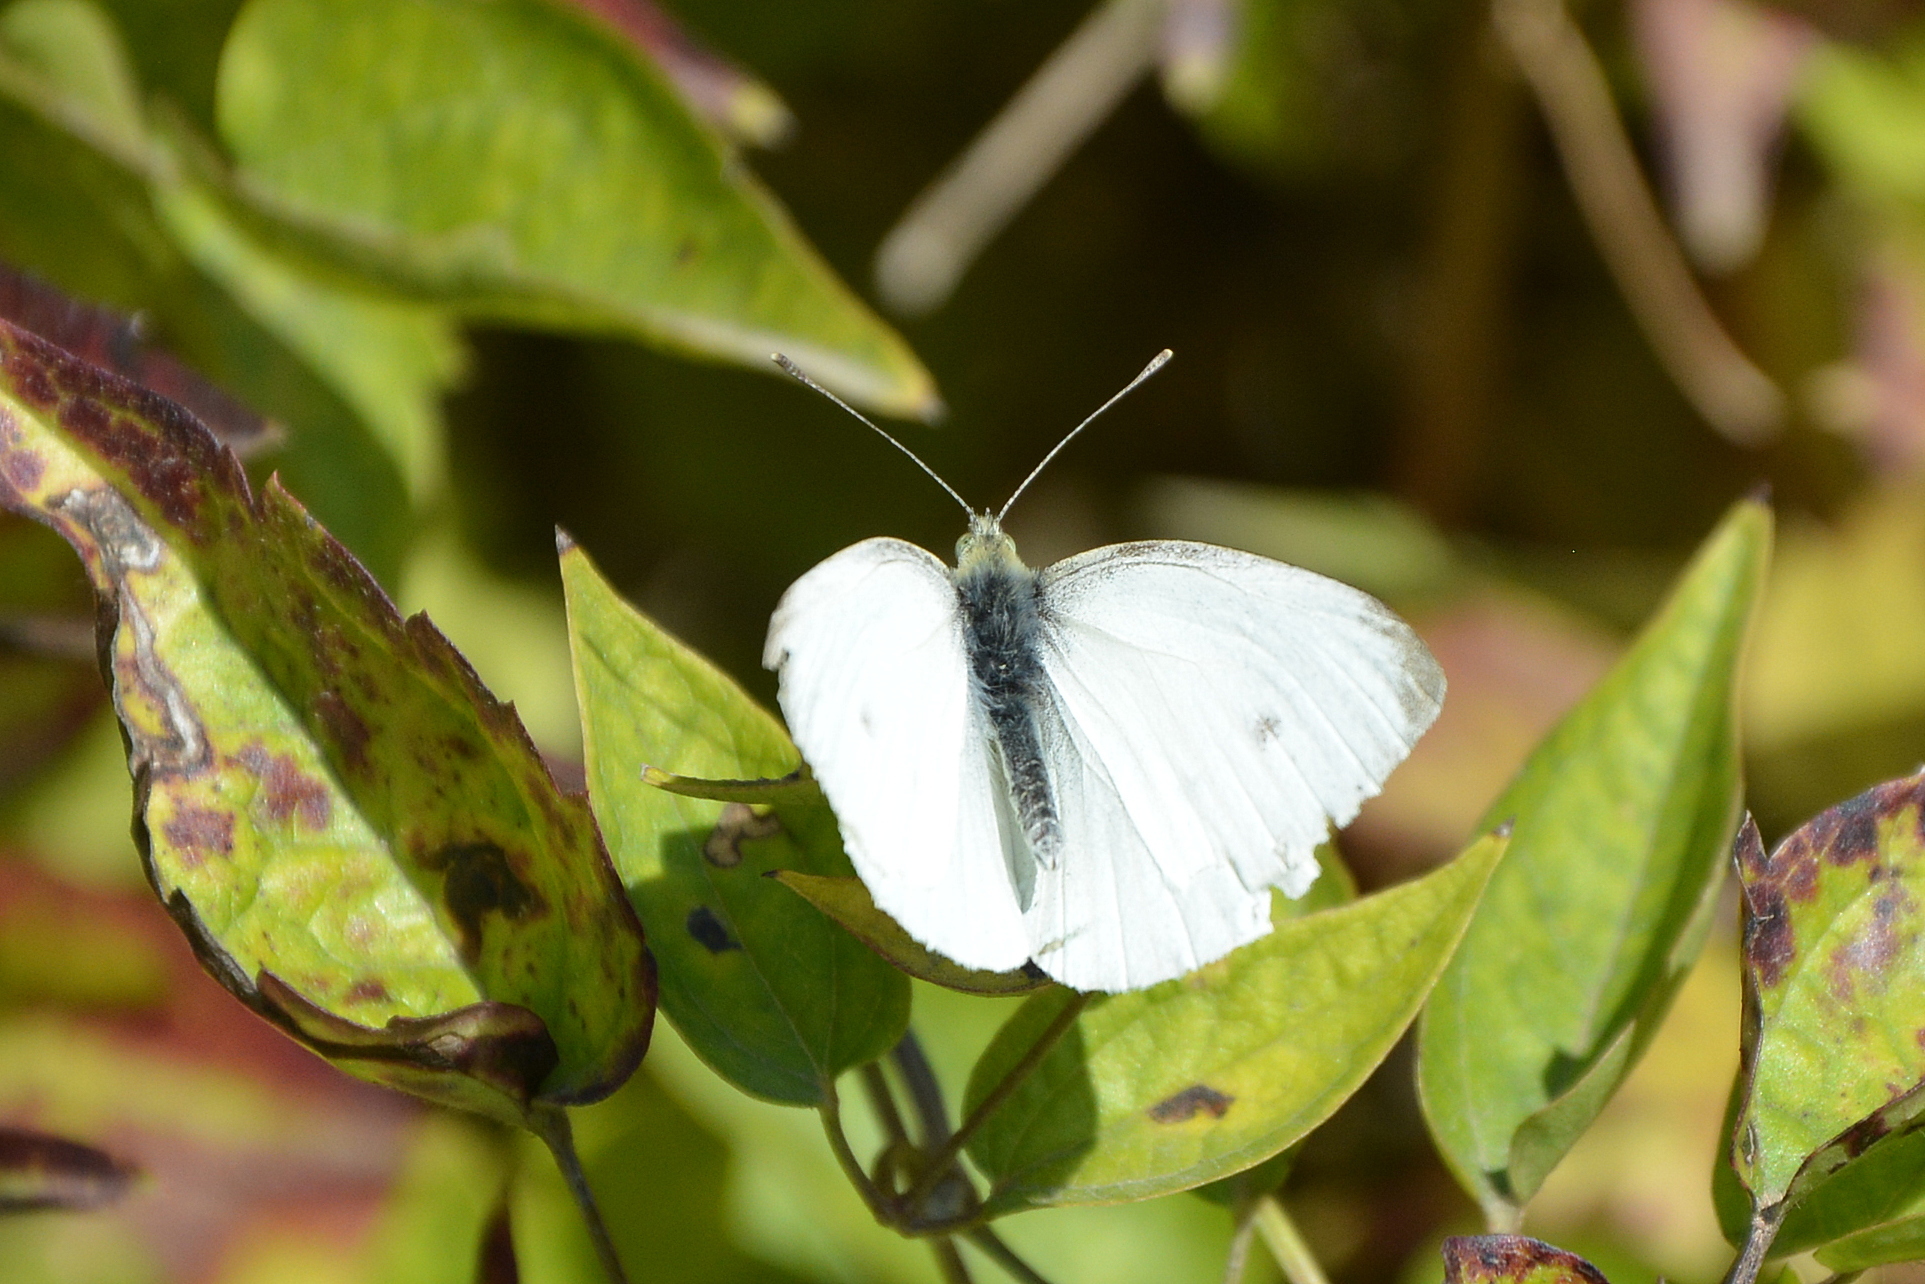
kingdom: Animalia
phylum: Arthropoda
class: Insecta
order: Lepidoptera
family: Pieridae
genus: Pieris
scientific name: Pieris rapae
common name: Small white
